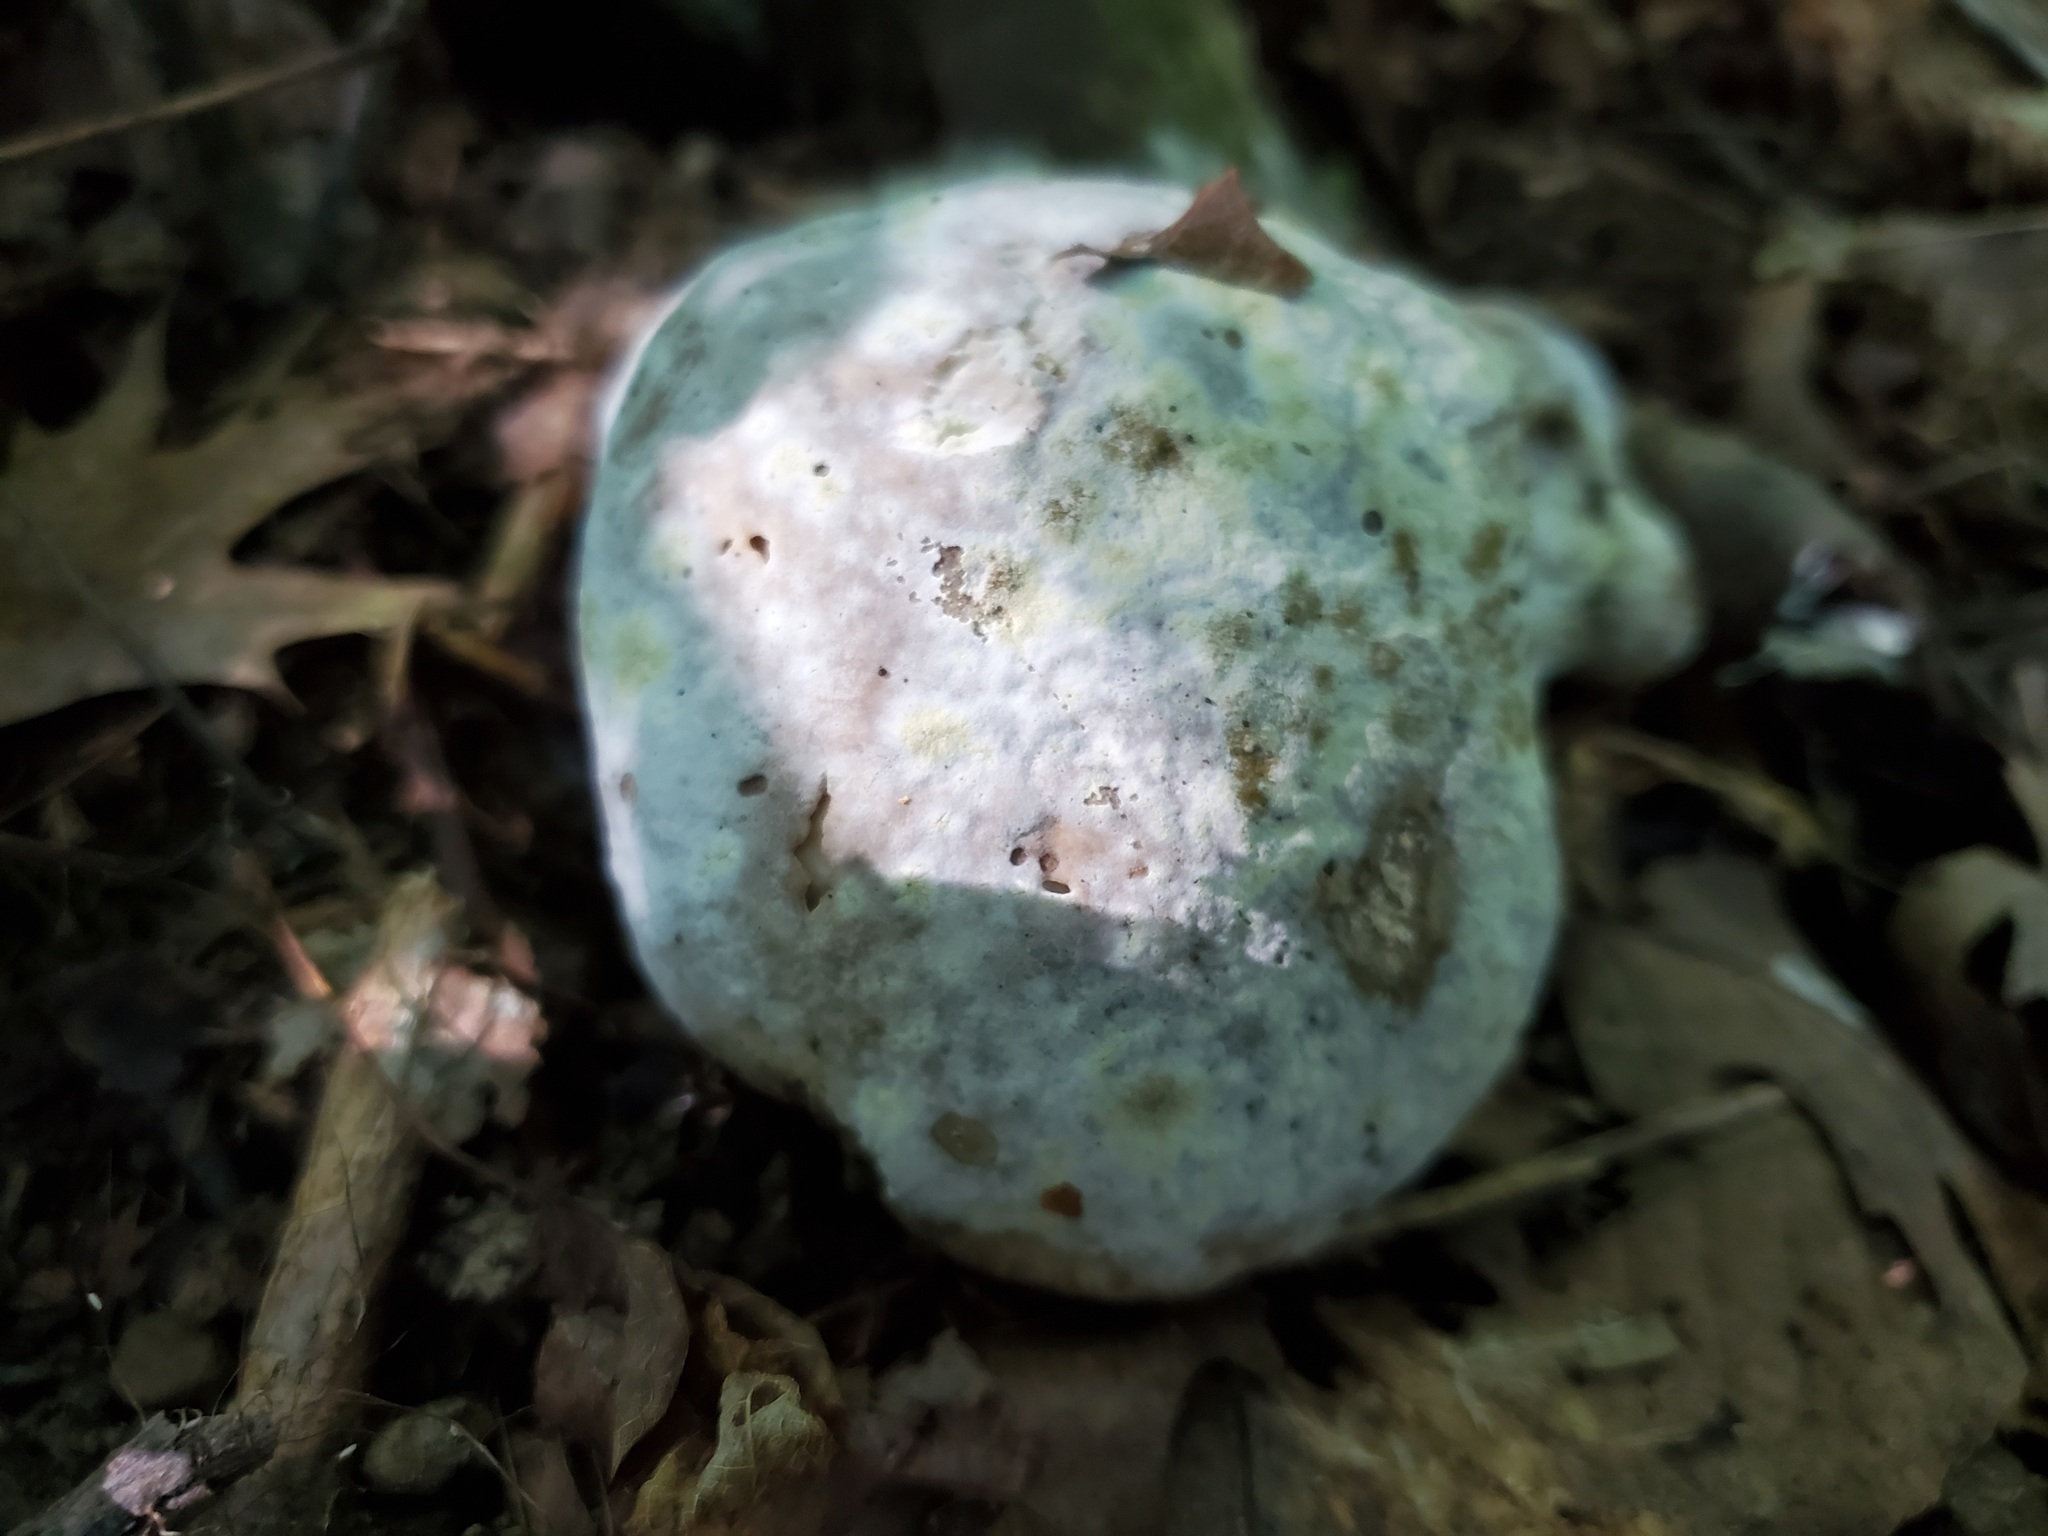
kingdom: Fungi
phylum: Ascomycota
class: Sordariomycetes
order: Hypocreales
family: Hypocreaceae
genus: Hypomyces
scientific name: Hypomyces melanocarpus
